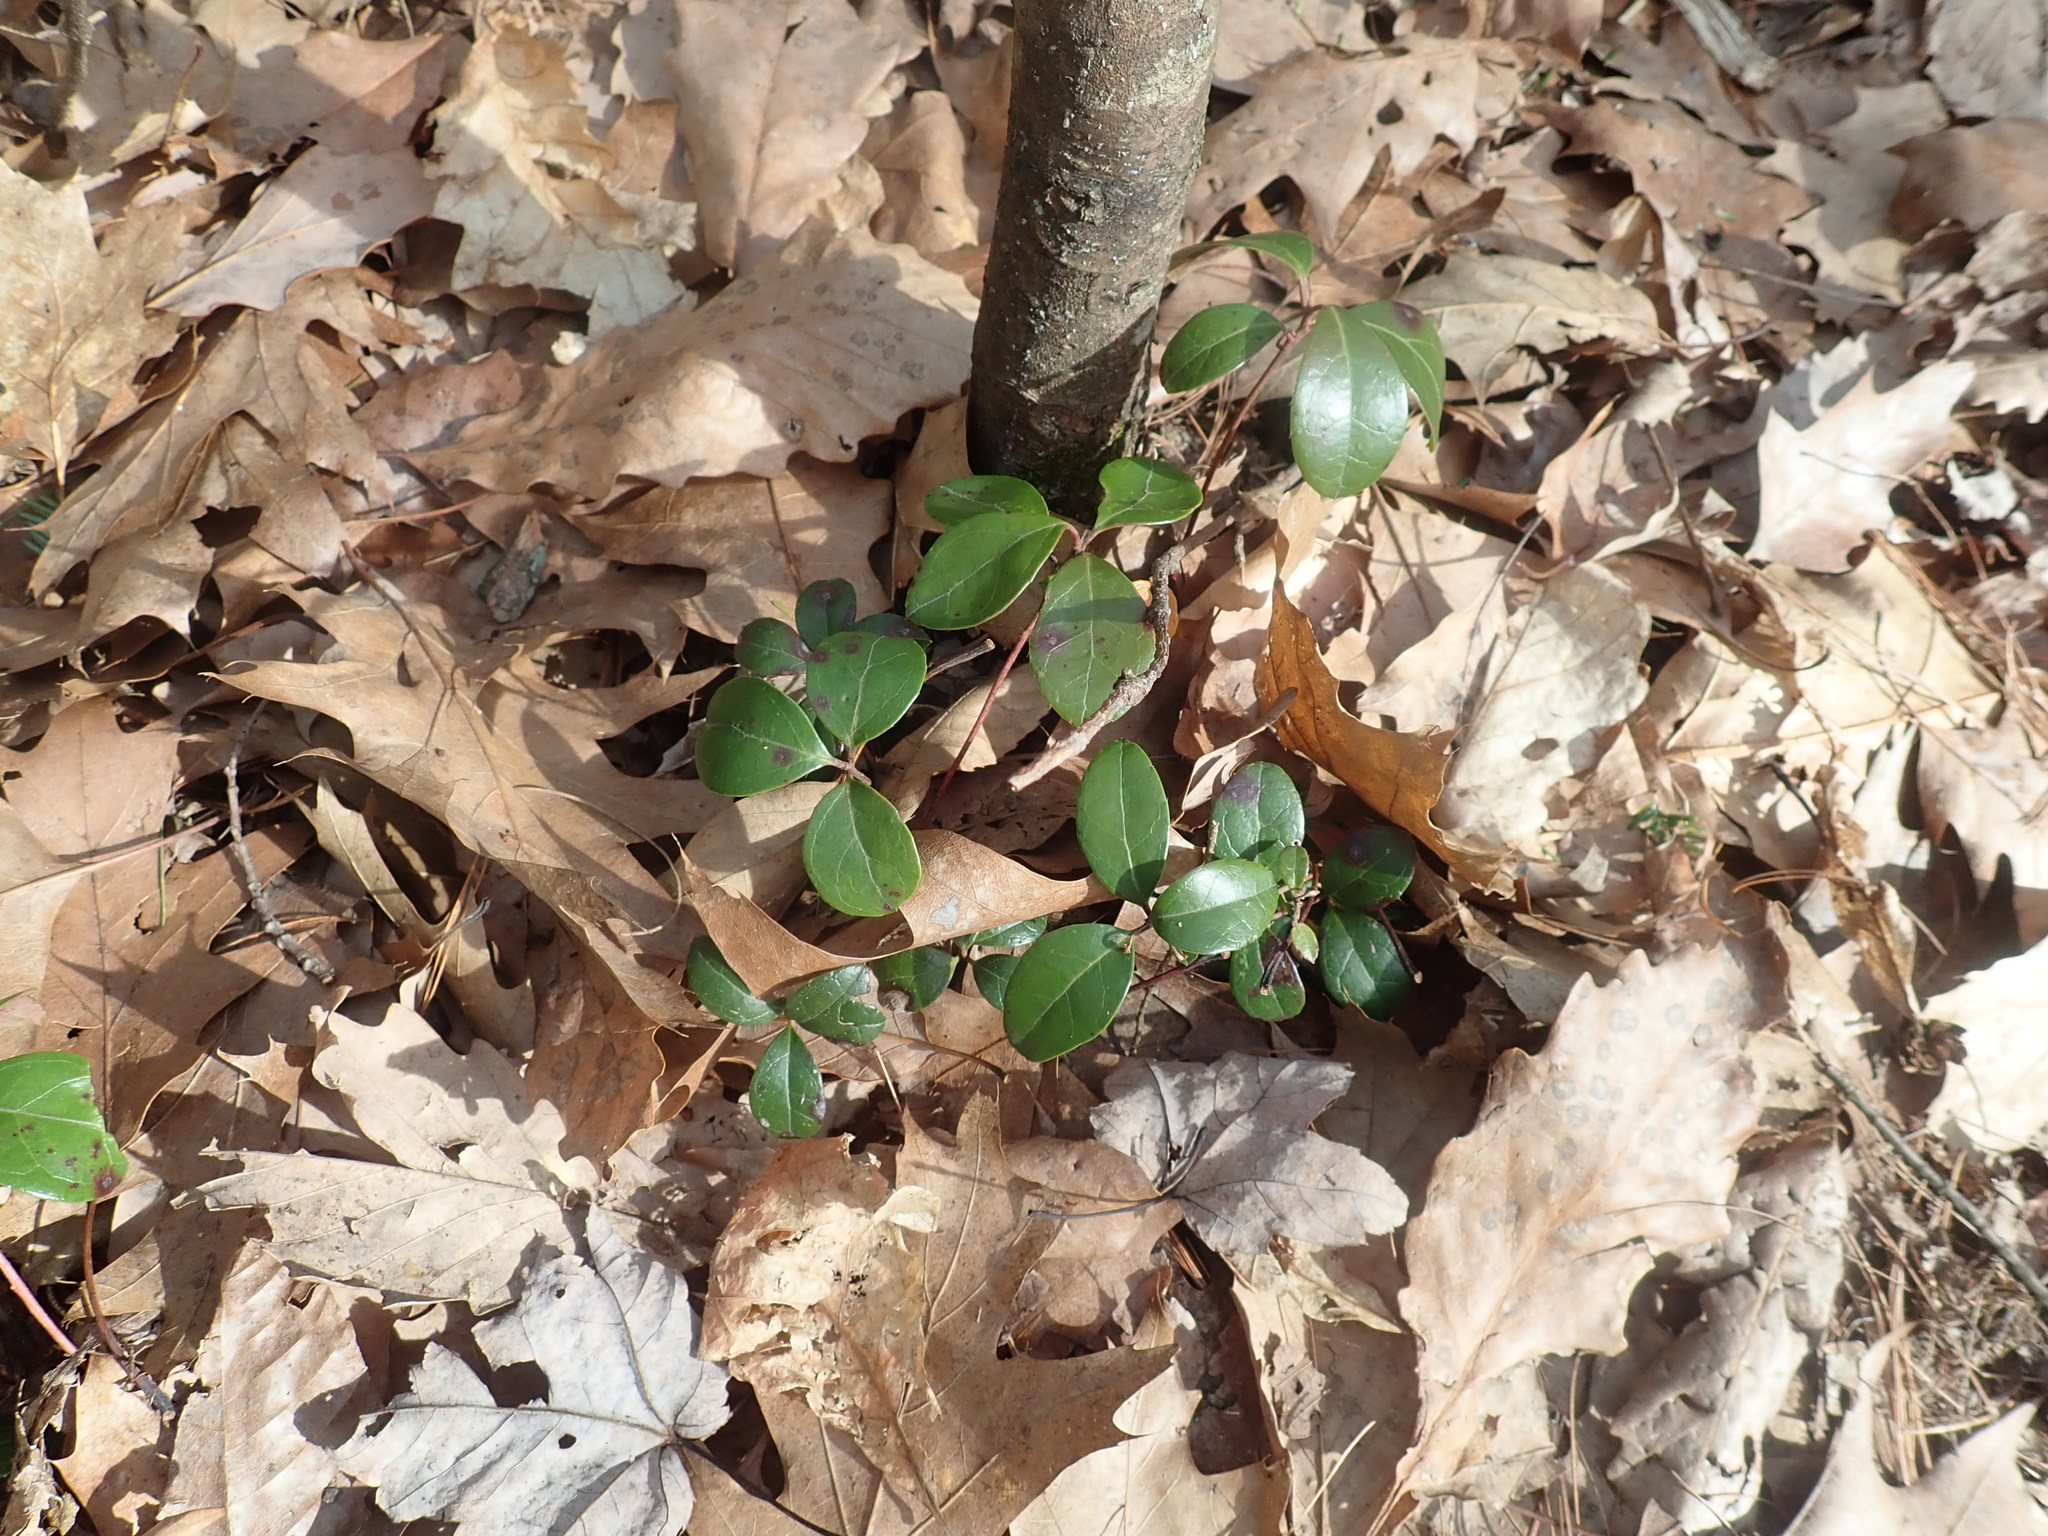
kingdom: Plantae
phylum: Tracheophyta
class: Magnoliopsida
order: Ericales
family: Ericaceae
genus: Gaultheria
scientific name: Gaultheria procumbens
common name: Checkerberry
